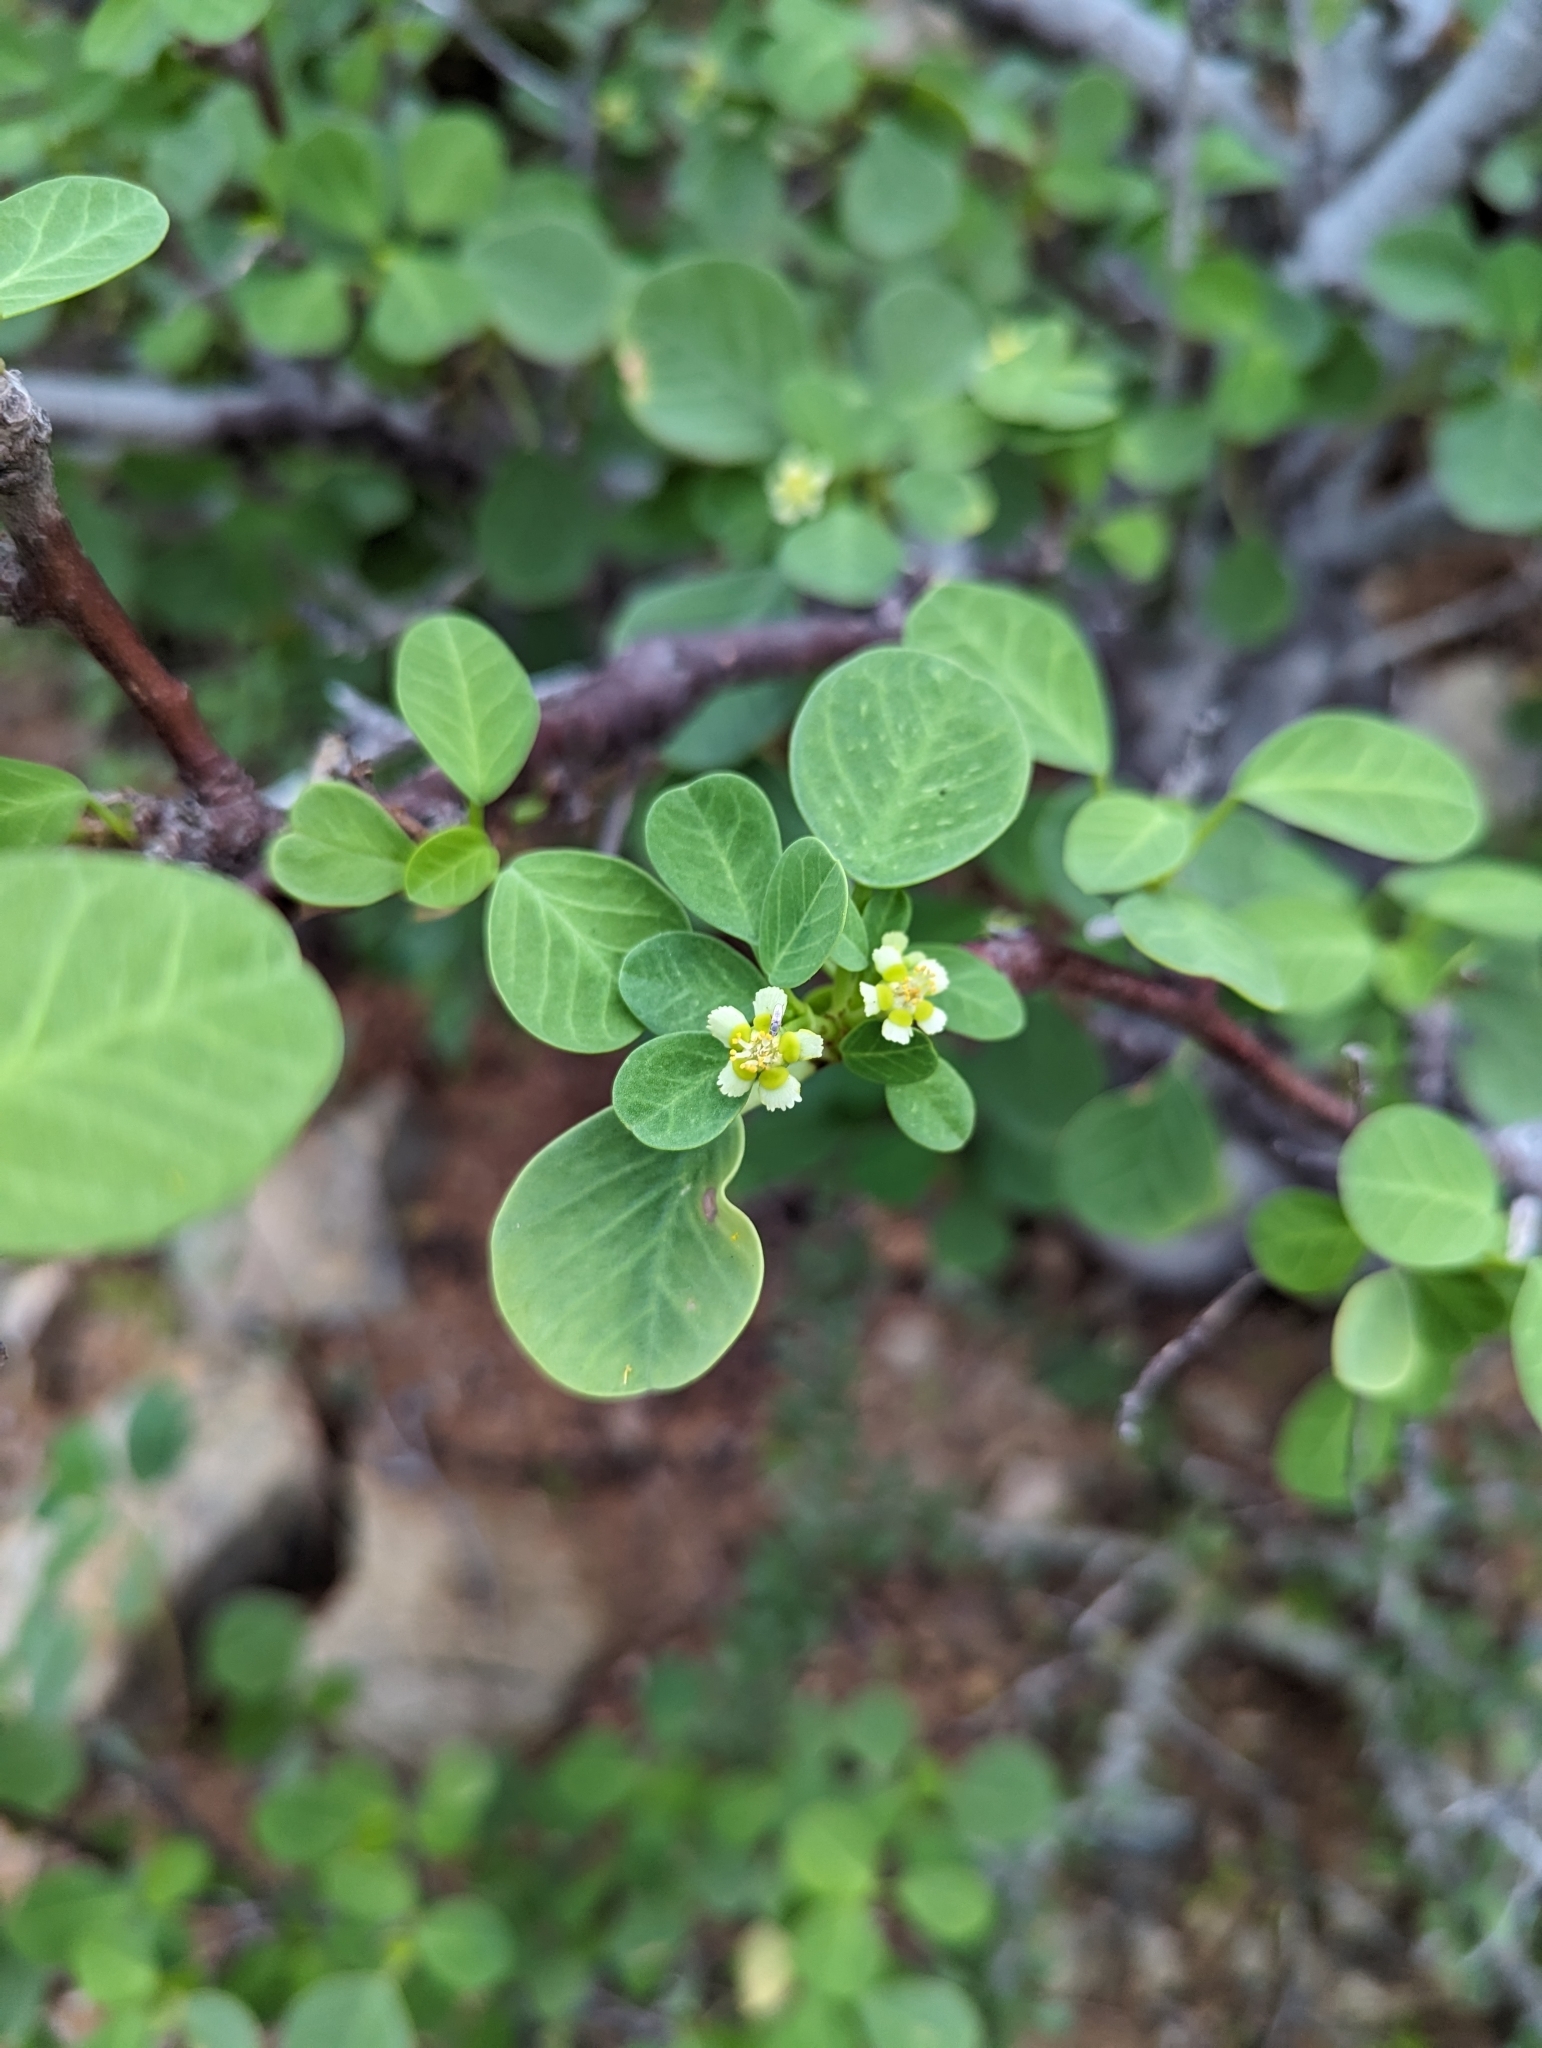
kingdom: Plantae
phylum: Tracheophyta
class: Magnoliopsida
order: Malpighiales
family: Euphorbiaceae
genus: Euphorbia
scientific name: Euphorbia hindsiana
